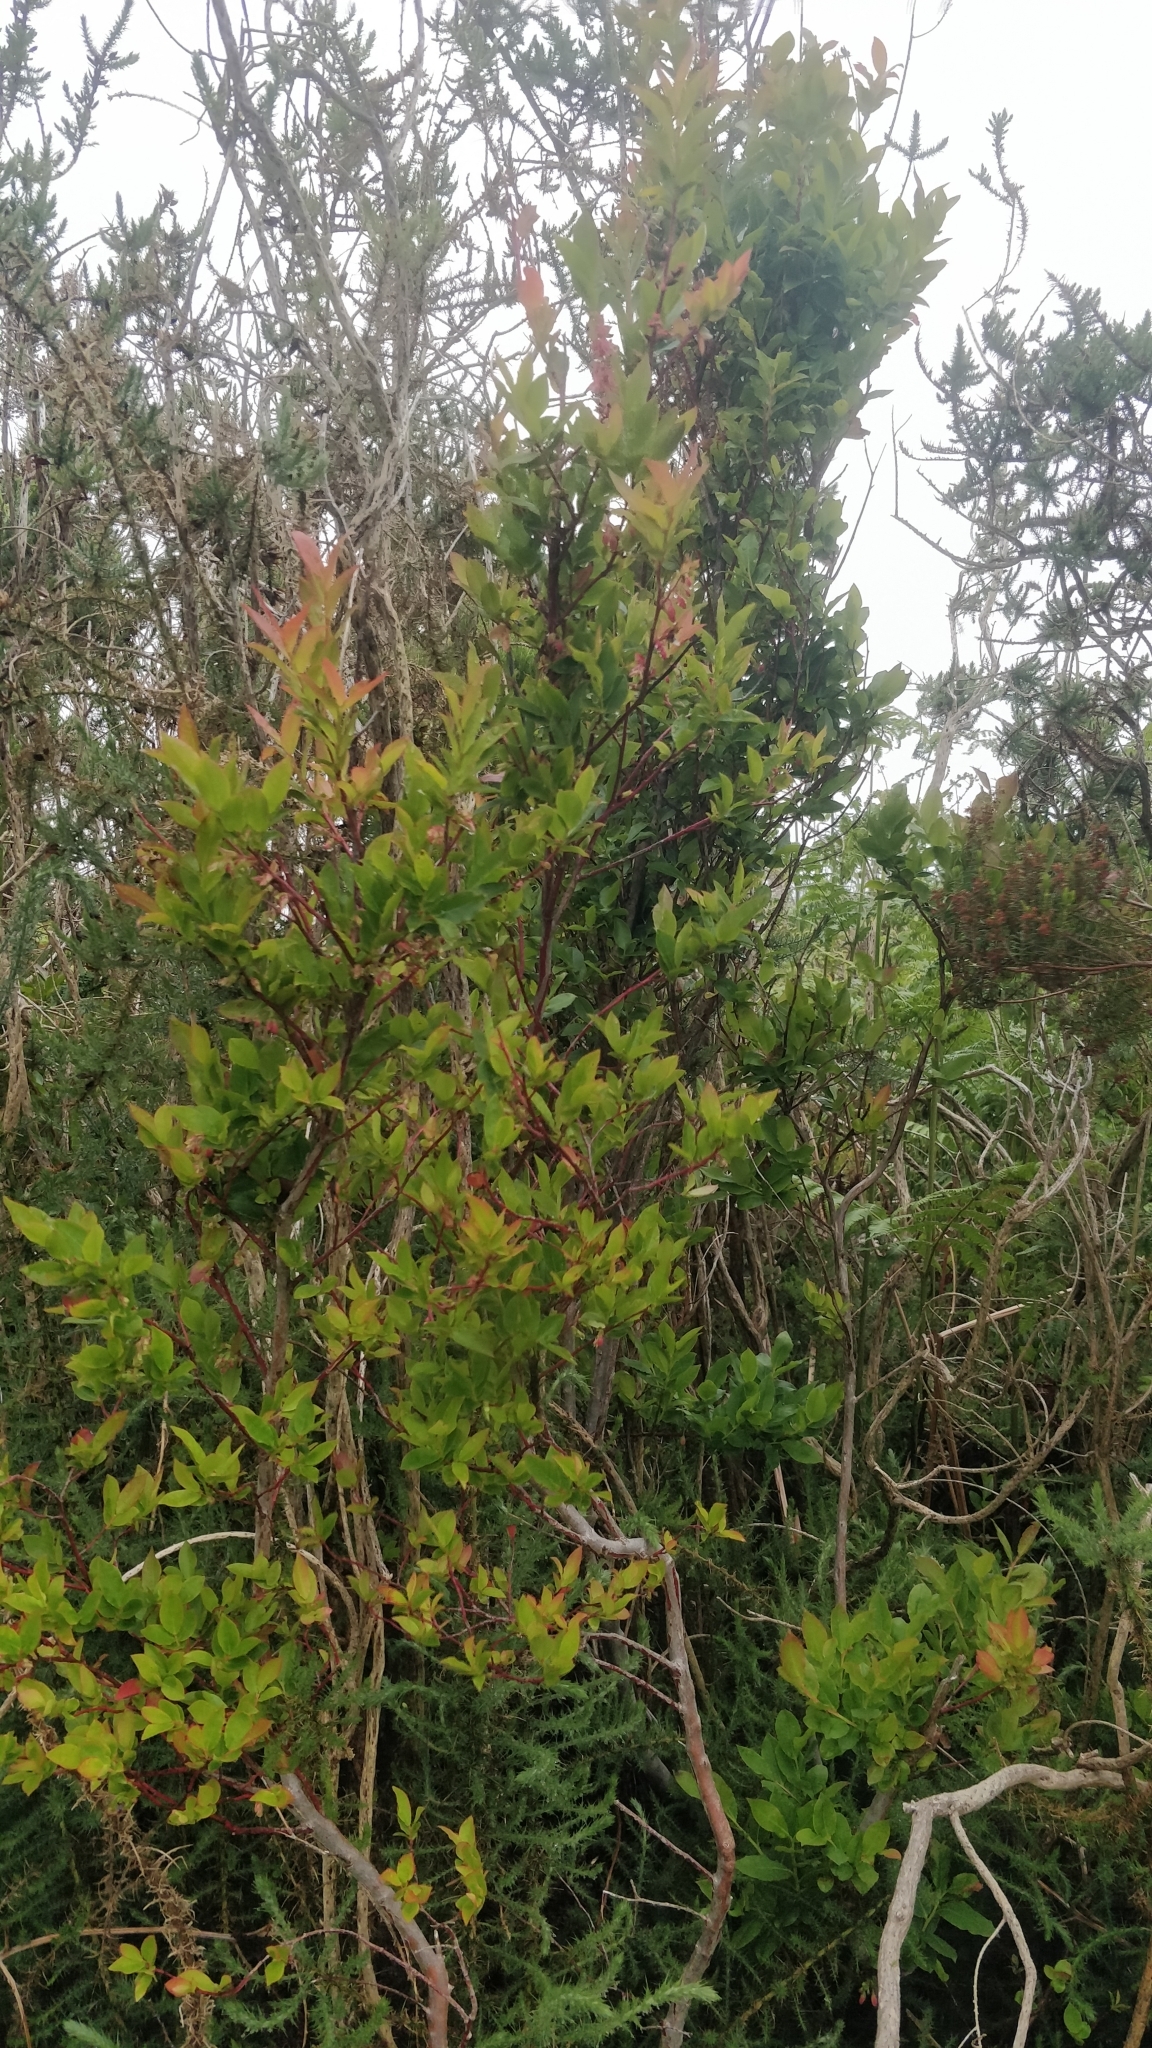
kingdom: Plantae
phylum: Tracheophyta
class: Magnoliopsida
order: Ericales
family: Ericaceae
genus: Vaccinium
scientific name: Vaccinium padifolium
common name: Madeiran blueberry
